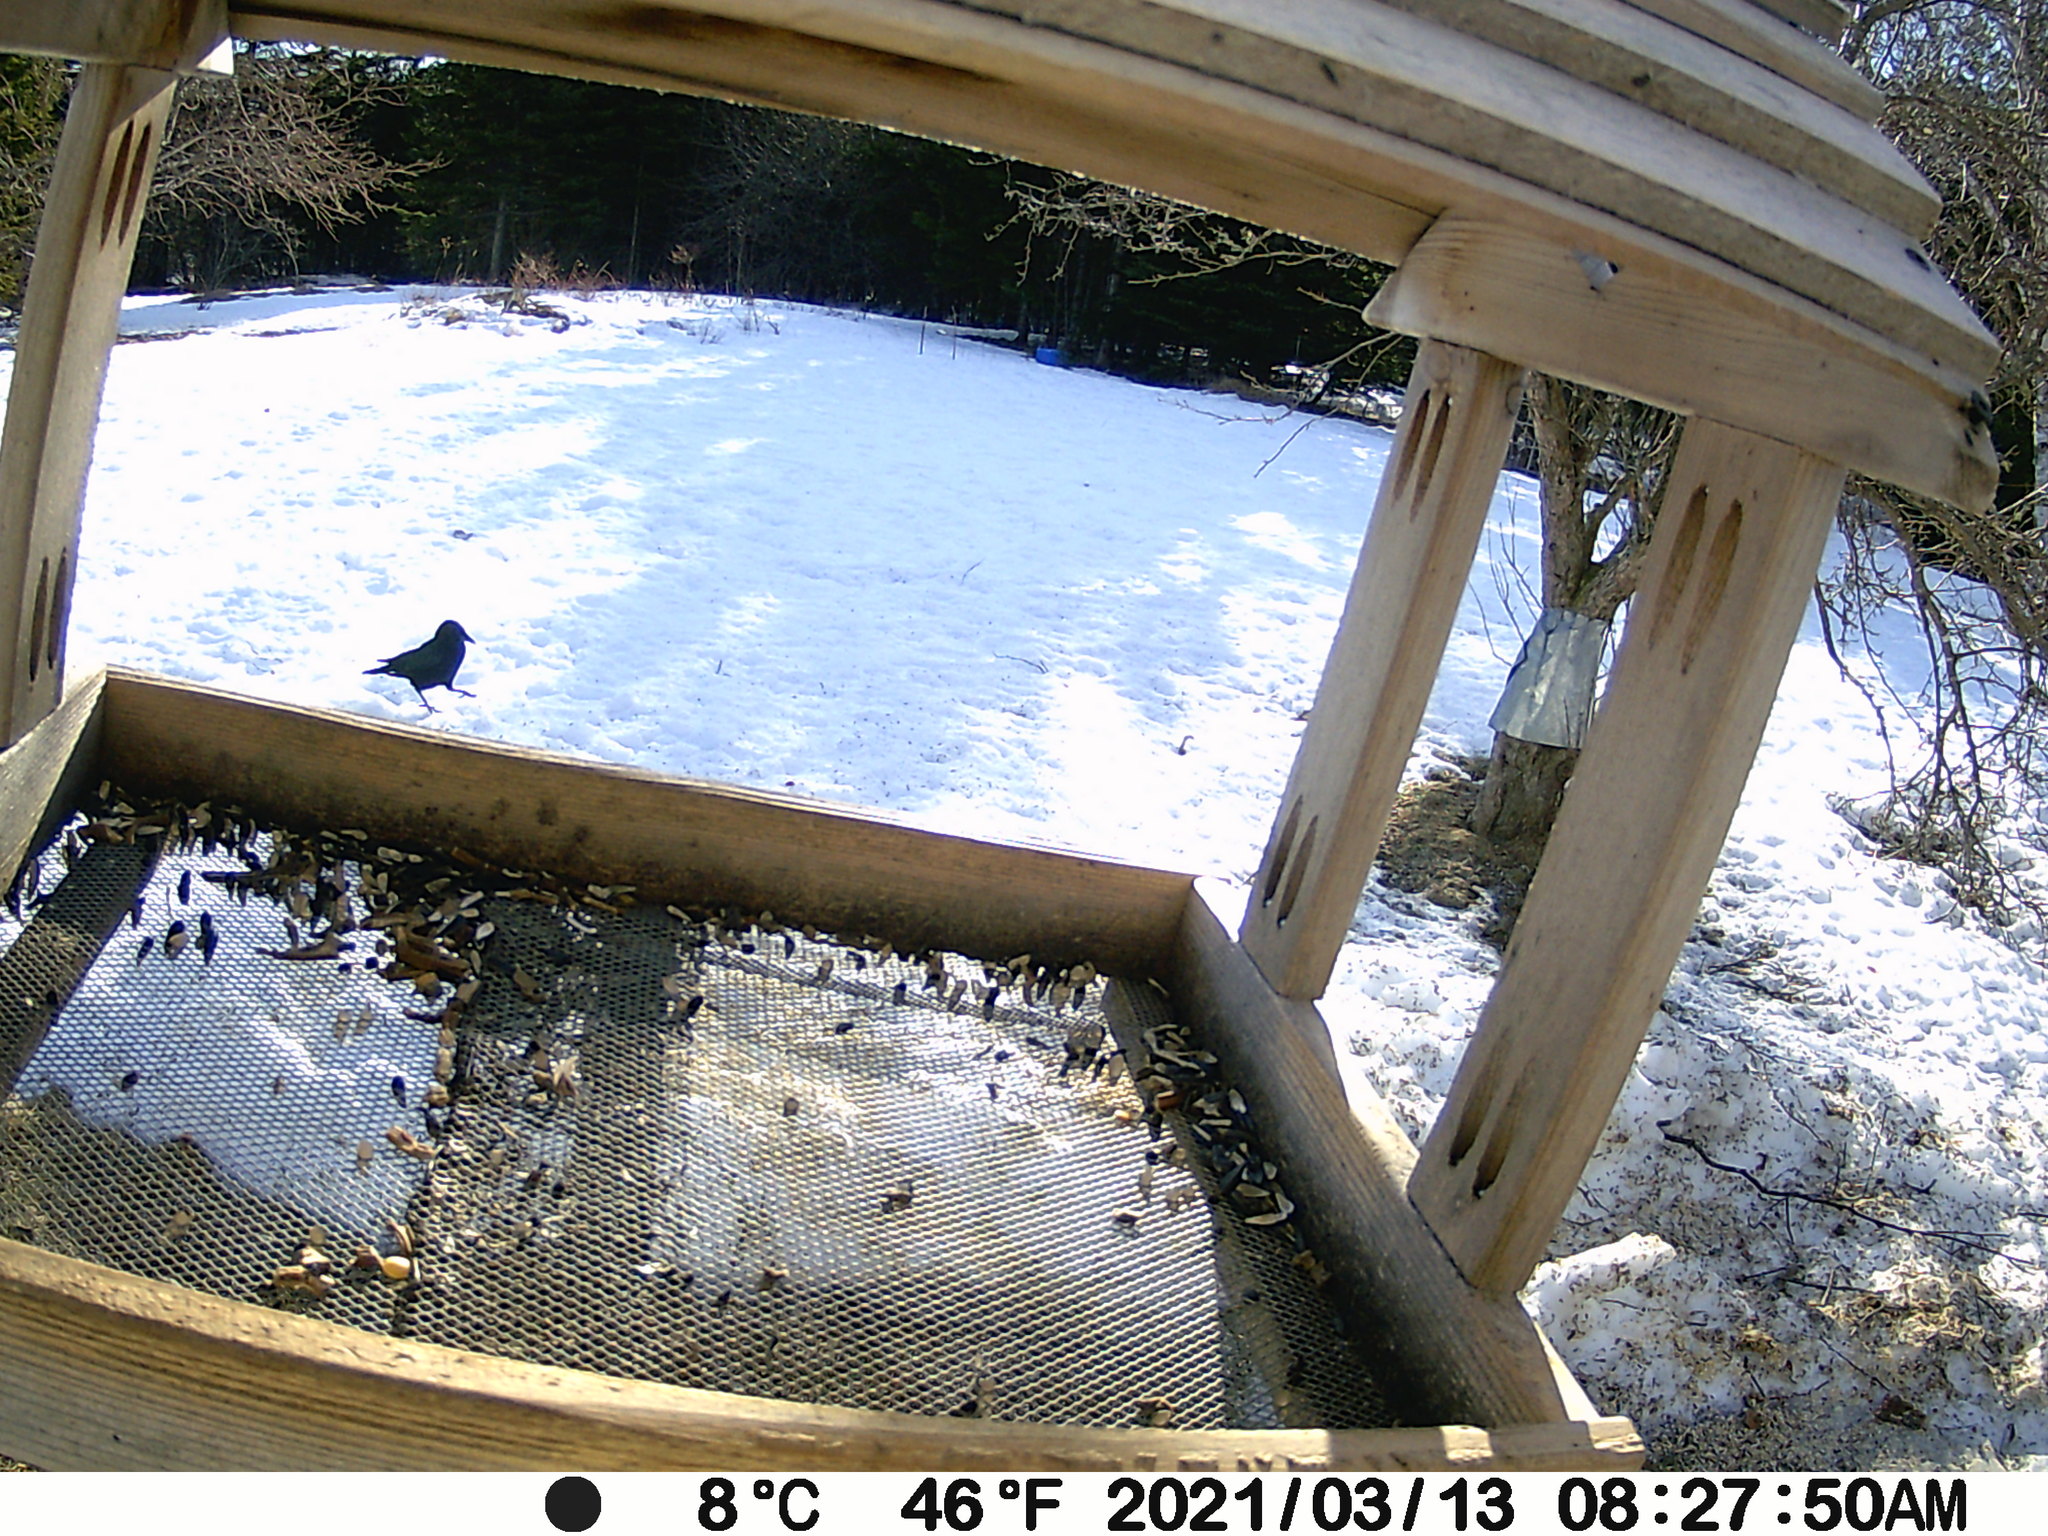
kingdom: Animalia
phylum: Chordata
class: Aves
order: Passeriformes
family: Corvidae
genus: Corvus
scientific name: Corvus brachyrhynchos
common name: American crow
